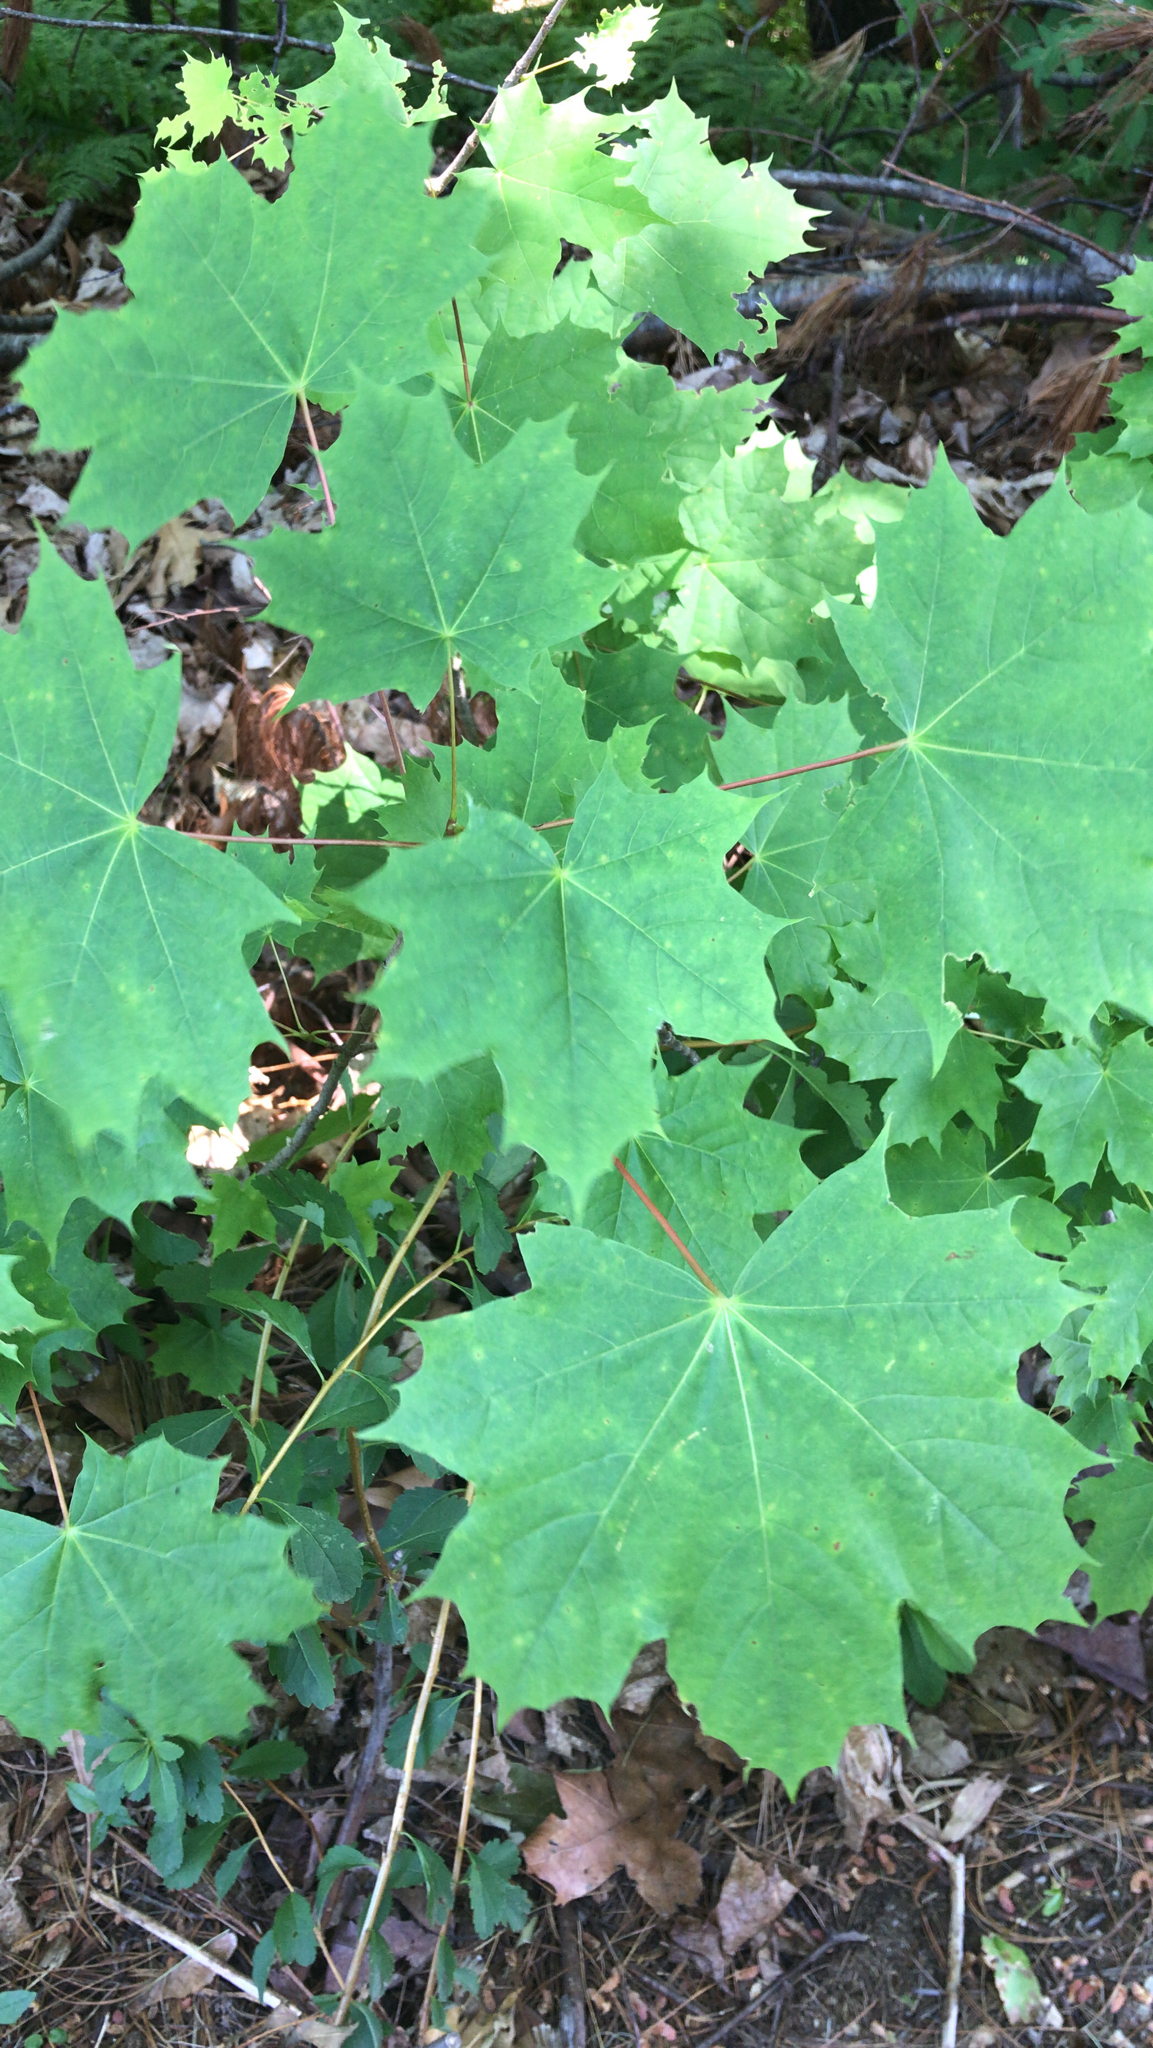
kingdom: Plantae
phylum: Tracheophyta
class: Magnoliopsida
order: Sapindales
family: Sapindaceae
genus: Acer
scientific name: Acer platanoides
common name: Norway maple
